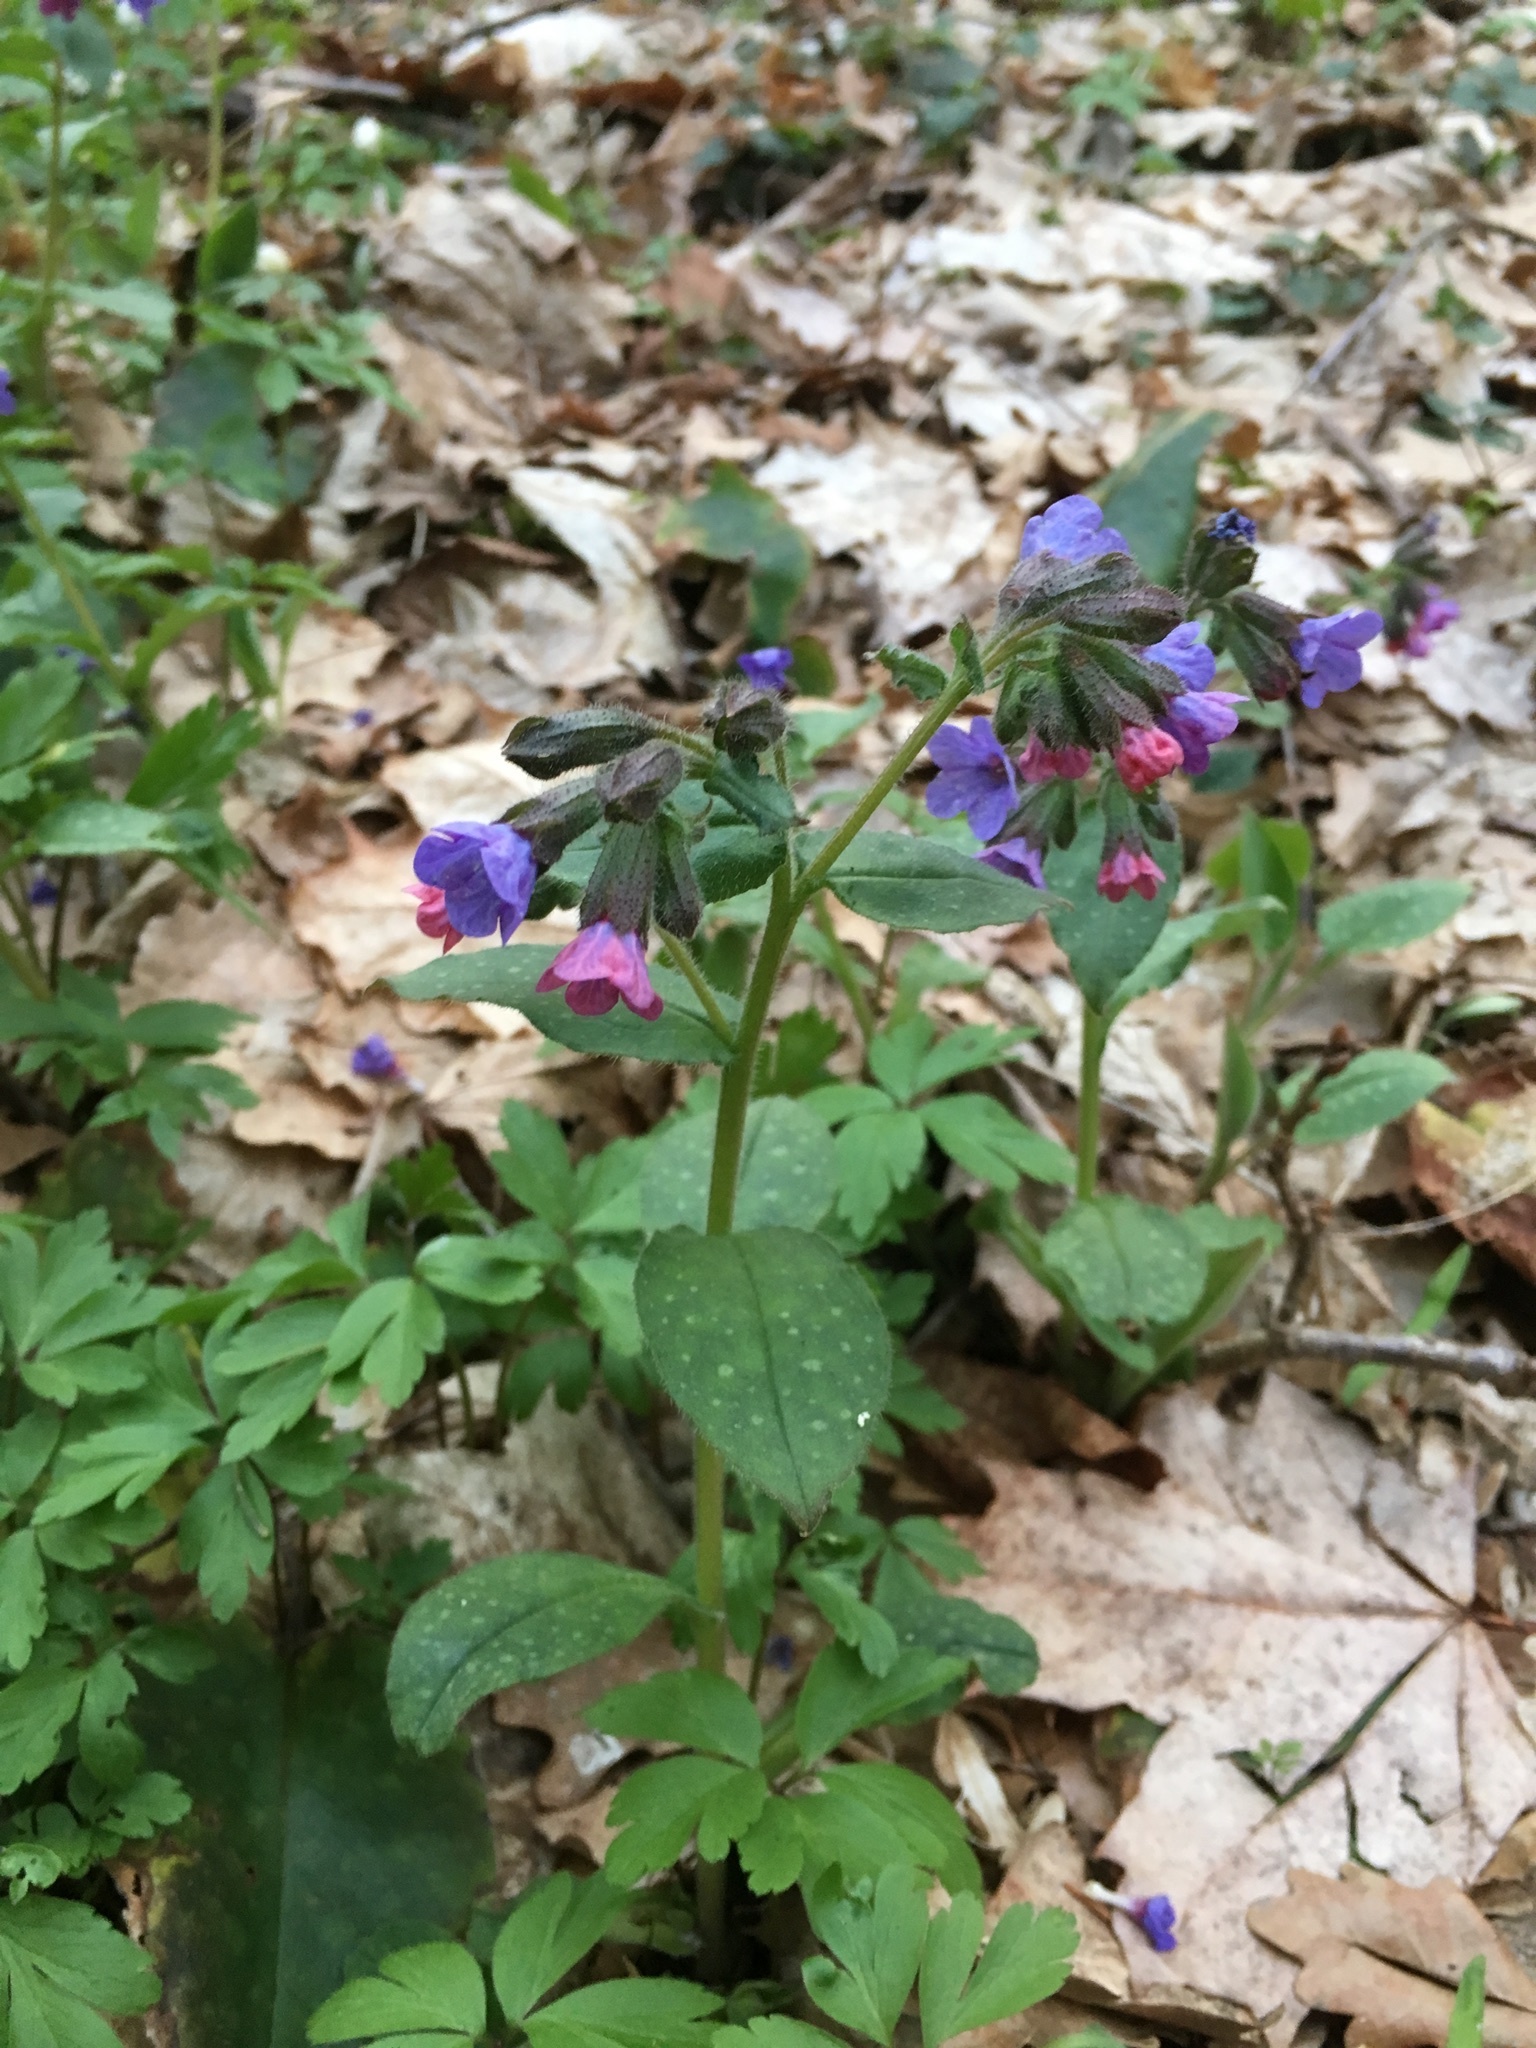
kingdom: Plantae
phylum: Tracheophyta
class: Magnoliopsida
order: Boraginales
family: Boraginaceae
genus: Pulmonaria
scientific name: Pulmonaria officinalis
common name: Lungwort
